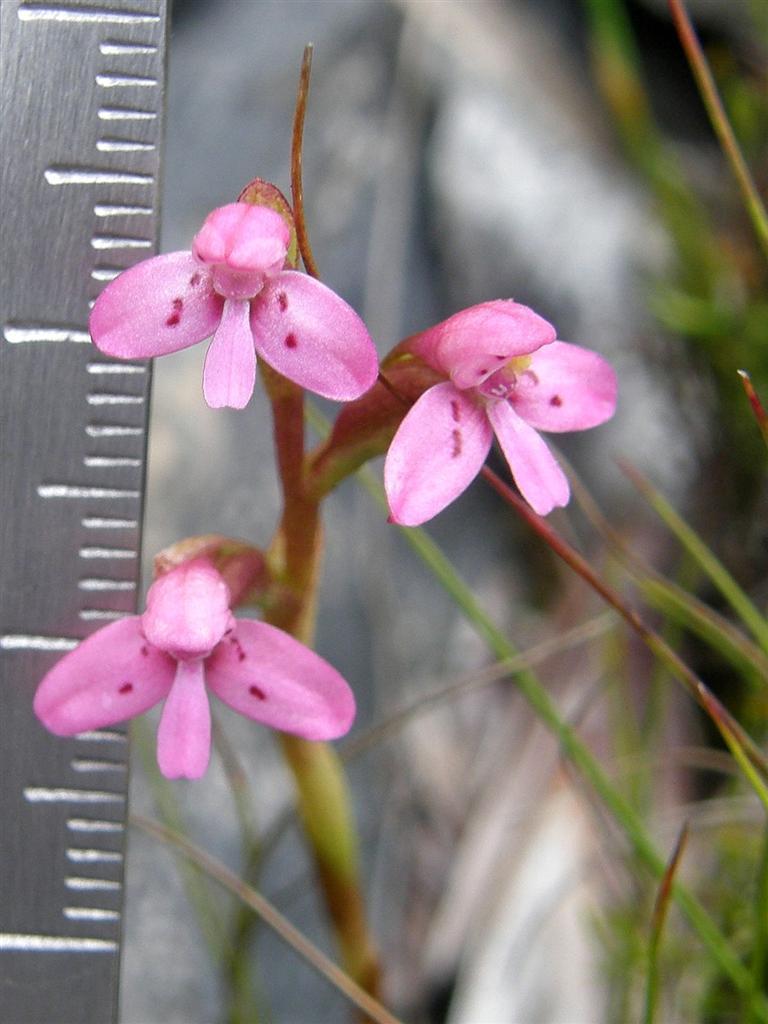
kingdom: Plantae
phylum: Tracheophyta
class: Liliopsida
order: Asparagales
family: Orchidaceae
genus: Disa
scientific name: Disa vaginata
